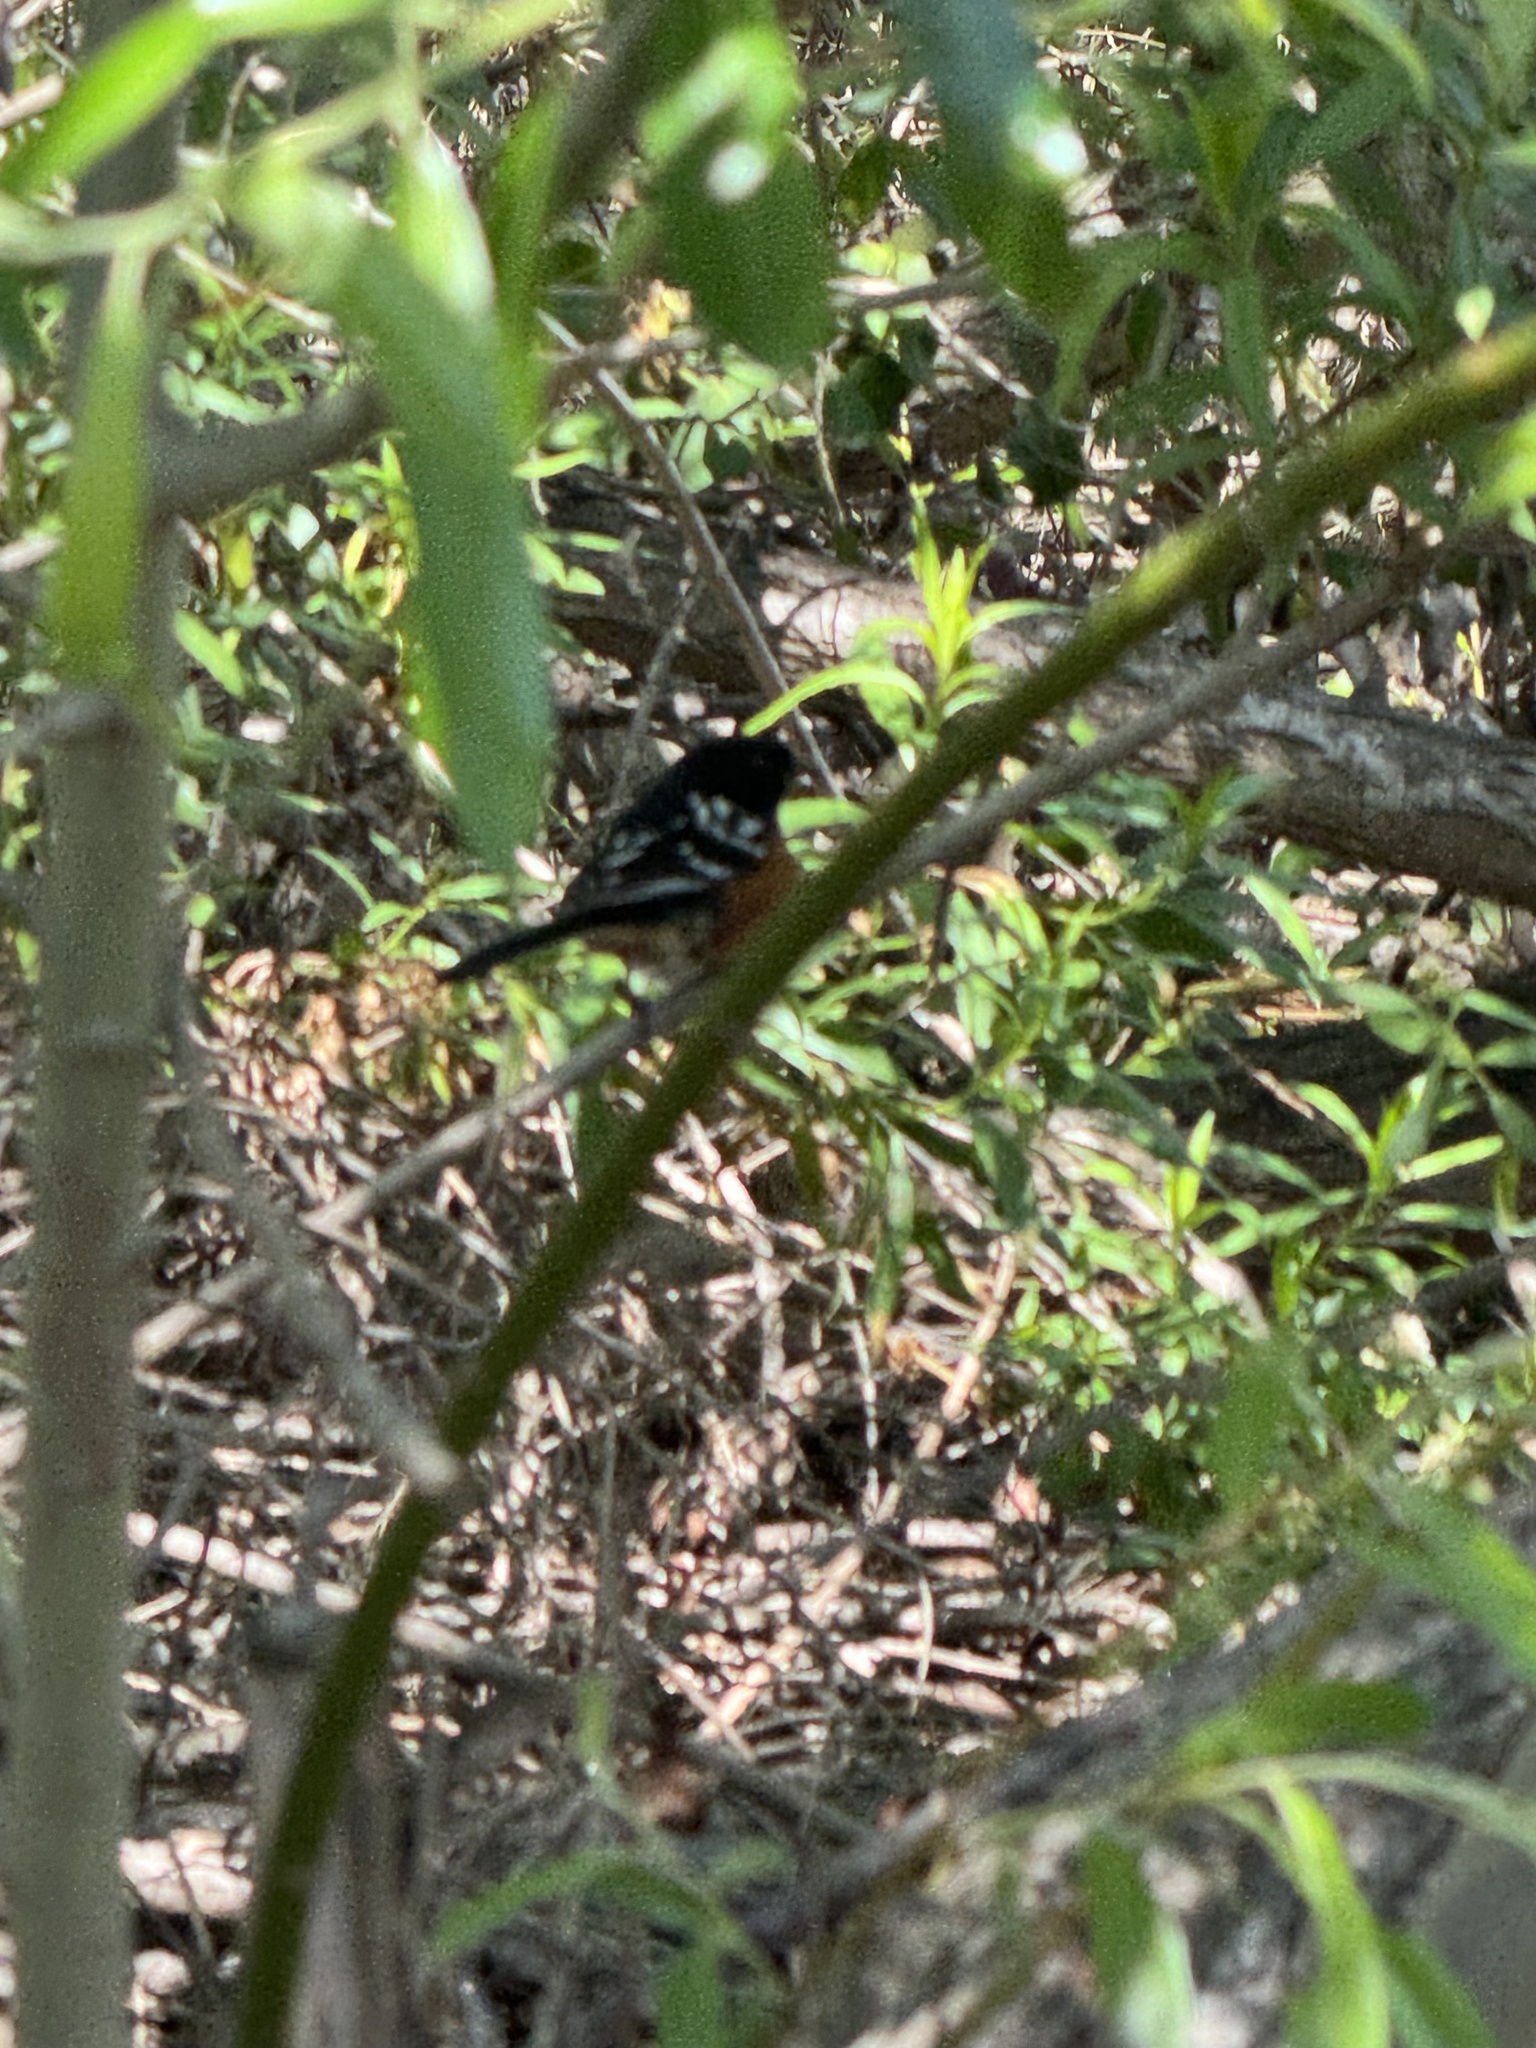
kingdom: Animalia
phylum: Chordata
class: Aves
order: Passeriformes
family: Passerellidae
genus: Pipilo
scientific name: Pipilo maculatus
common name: Spotted towhee
